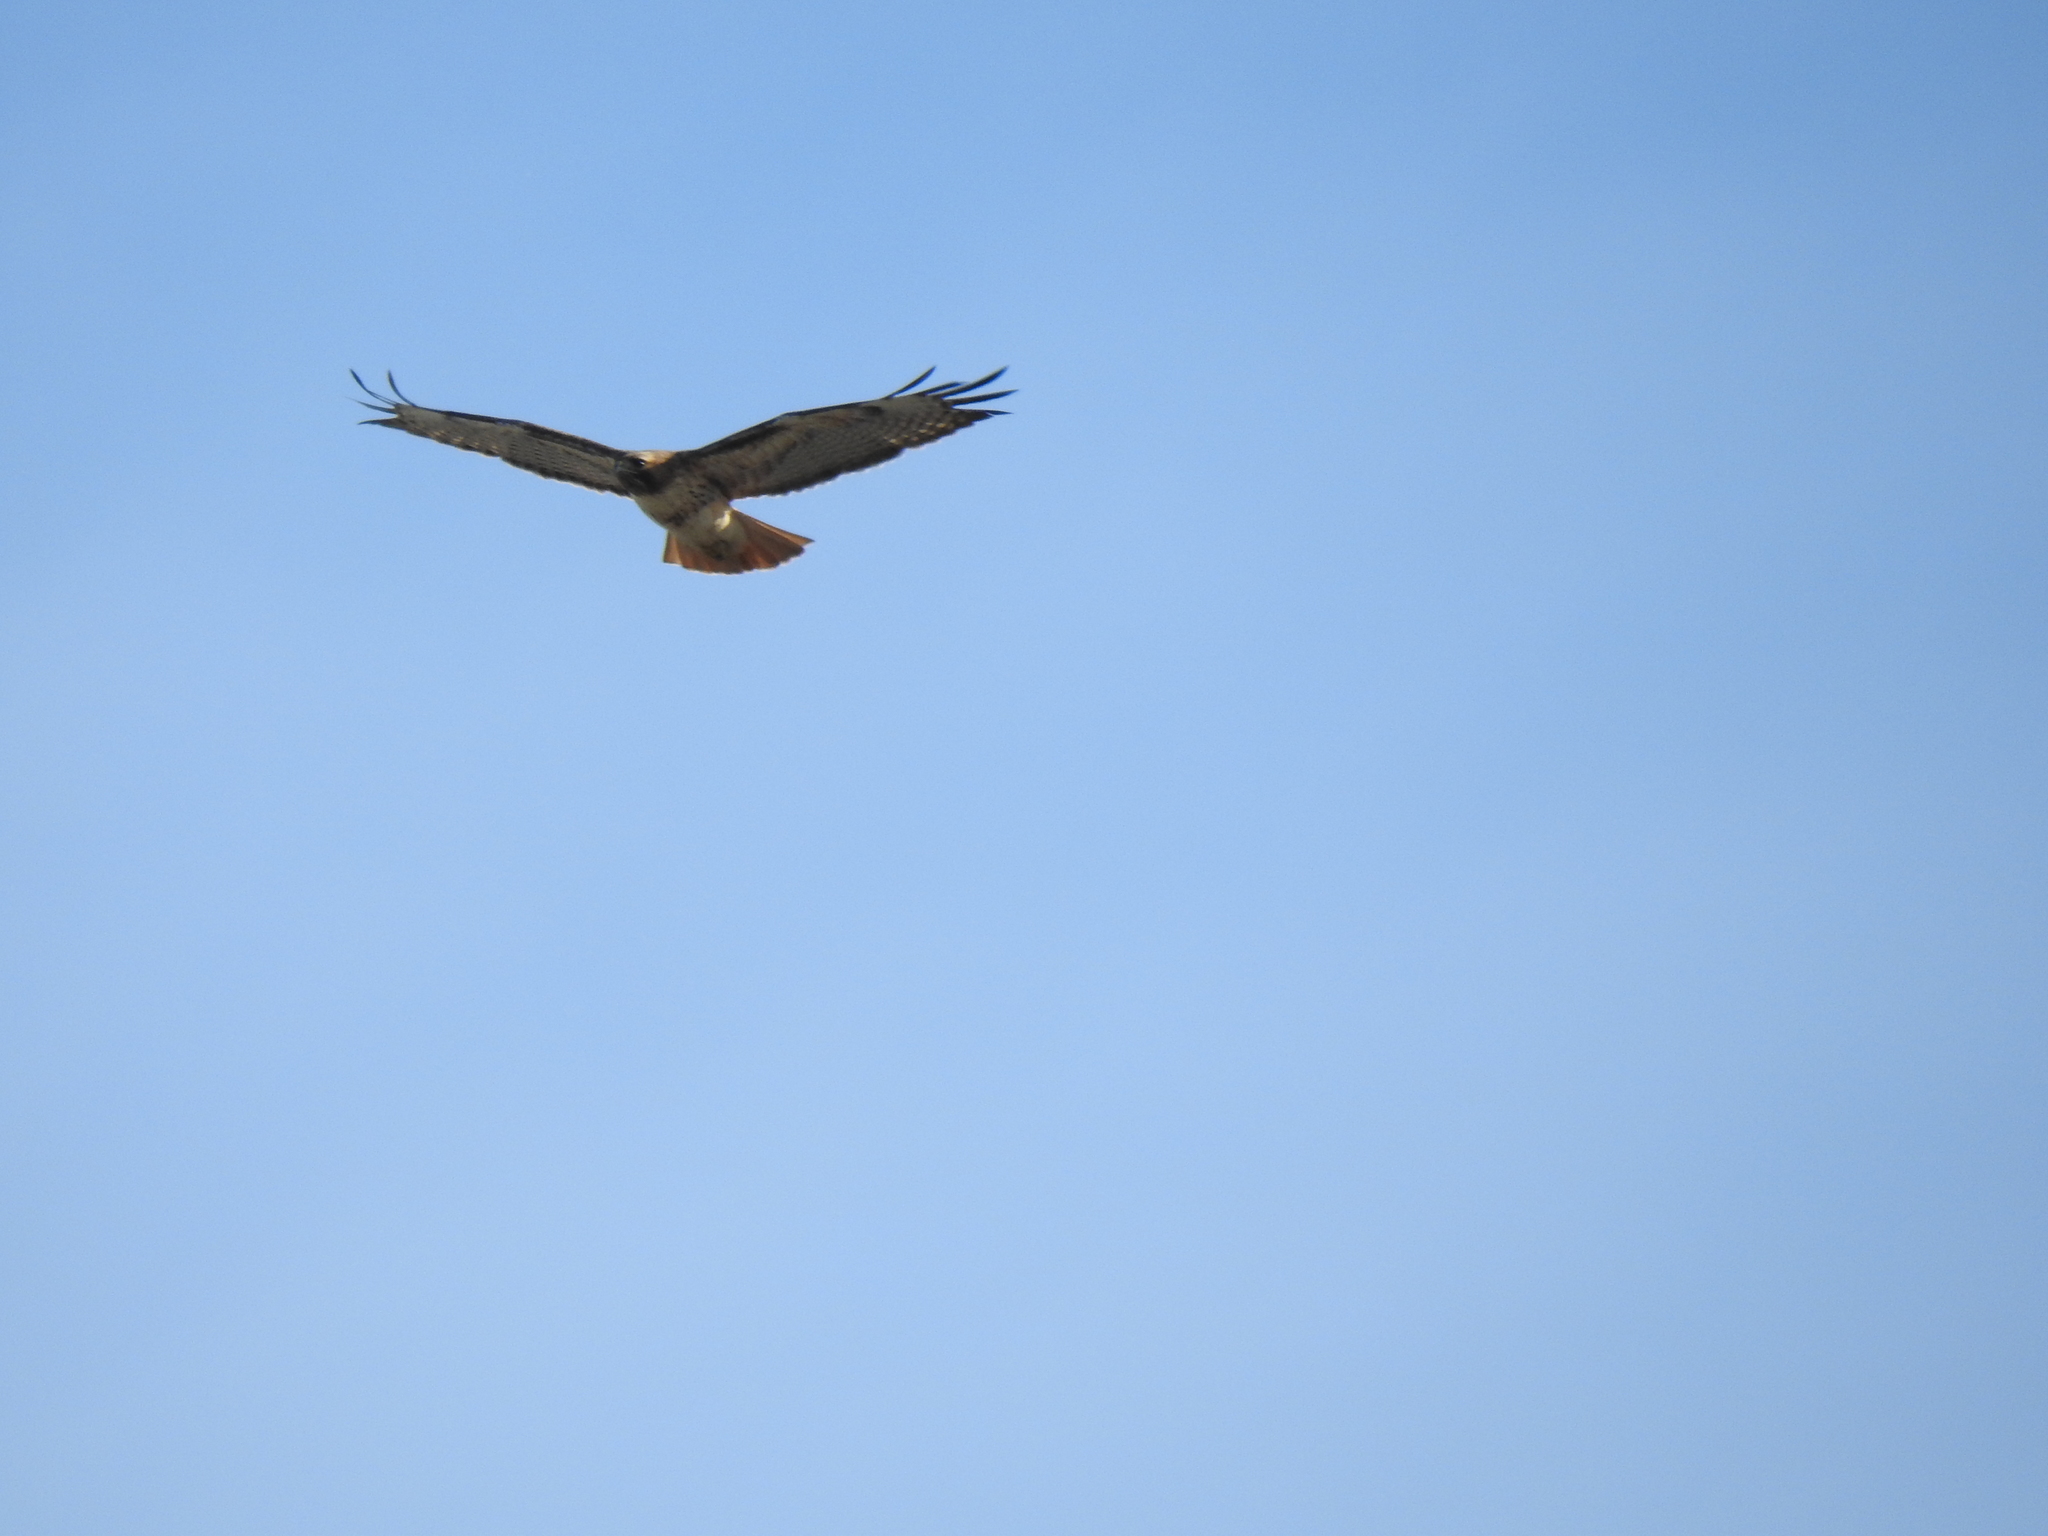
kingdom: Animalia
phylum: Chordata
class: Aves
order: Accipitriformes
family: Accipitridae
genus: Buteo
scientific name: Buteo jamaicensis
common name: Red-tailed hawk
